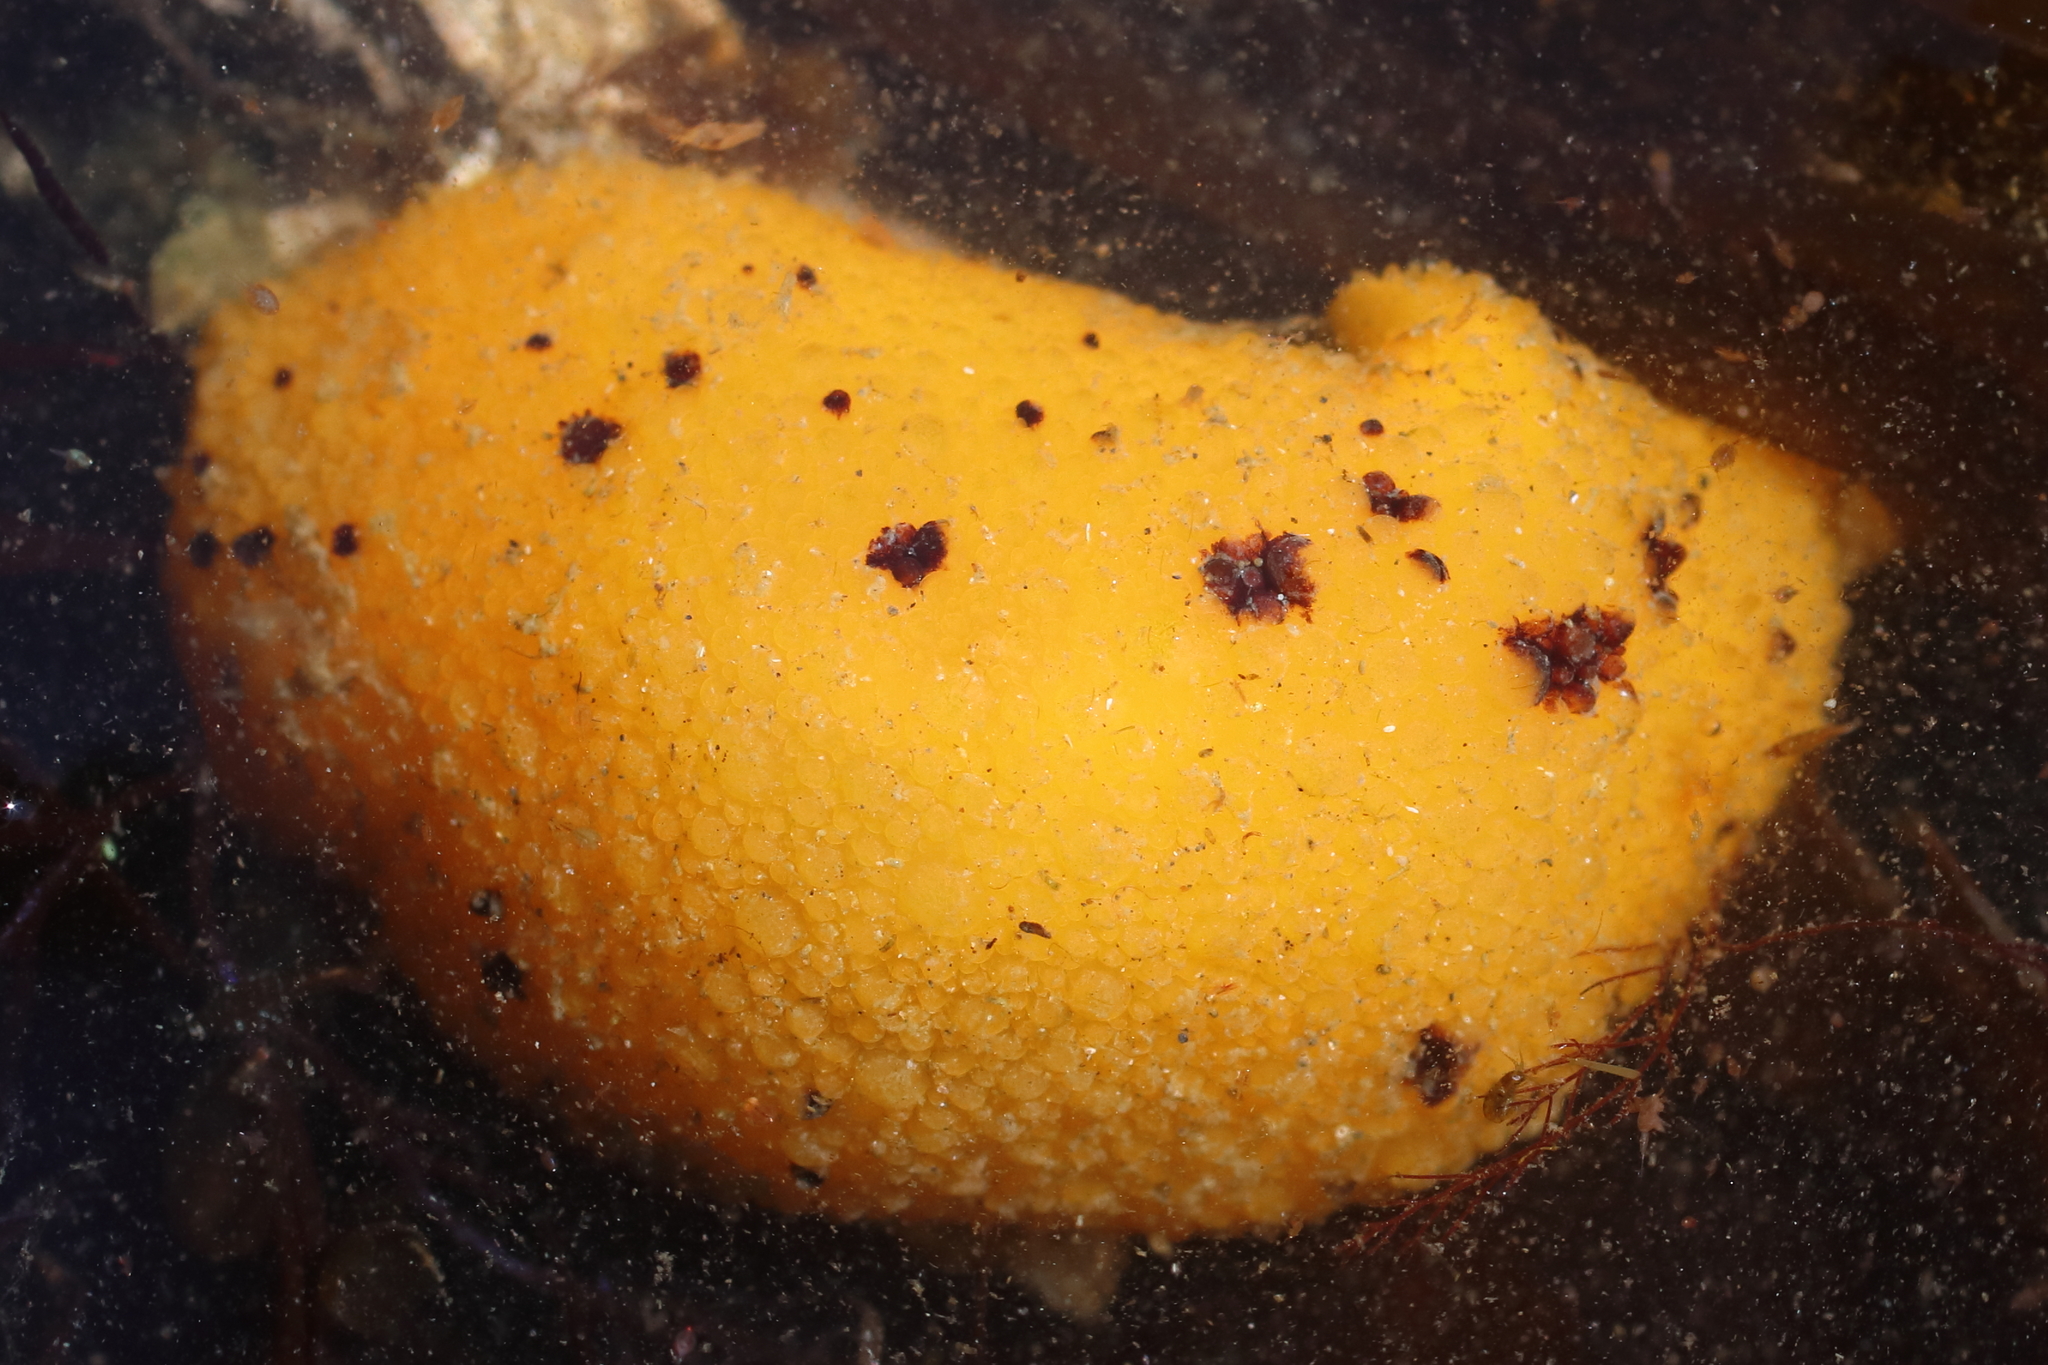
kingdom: Animalia
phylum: Mollusca
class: Gastropoda
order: Nudibranchia
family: Dorididae
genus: Doris
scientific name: Doris montereyensis
